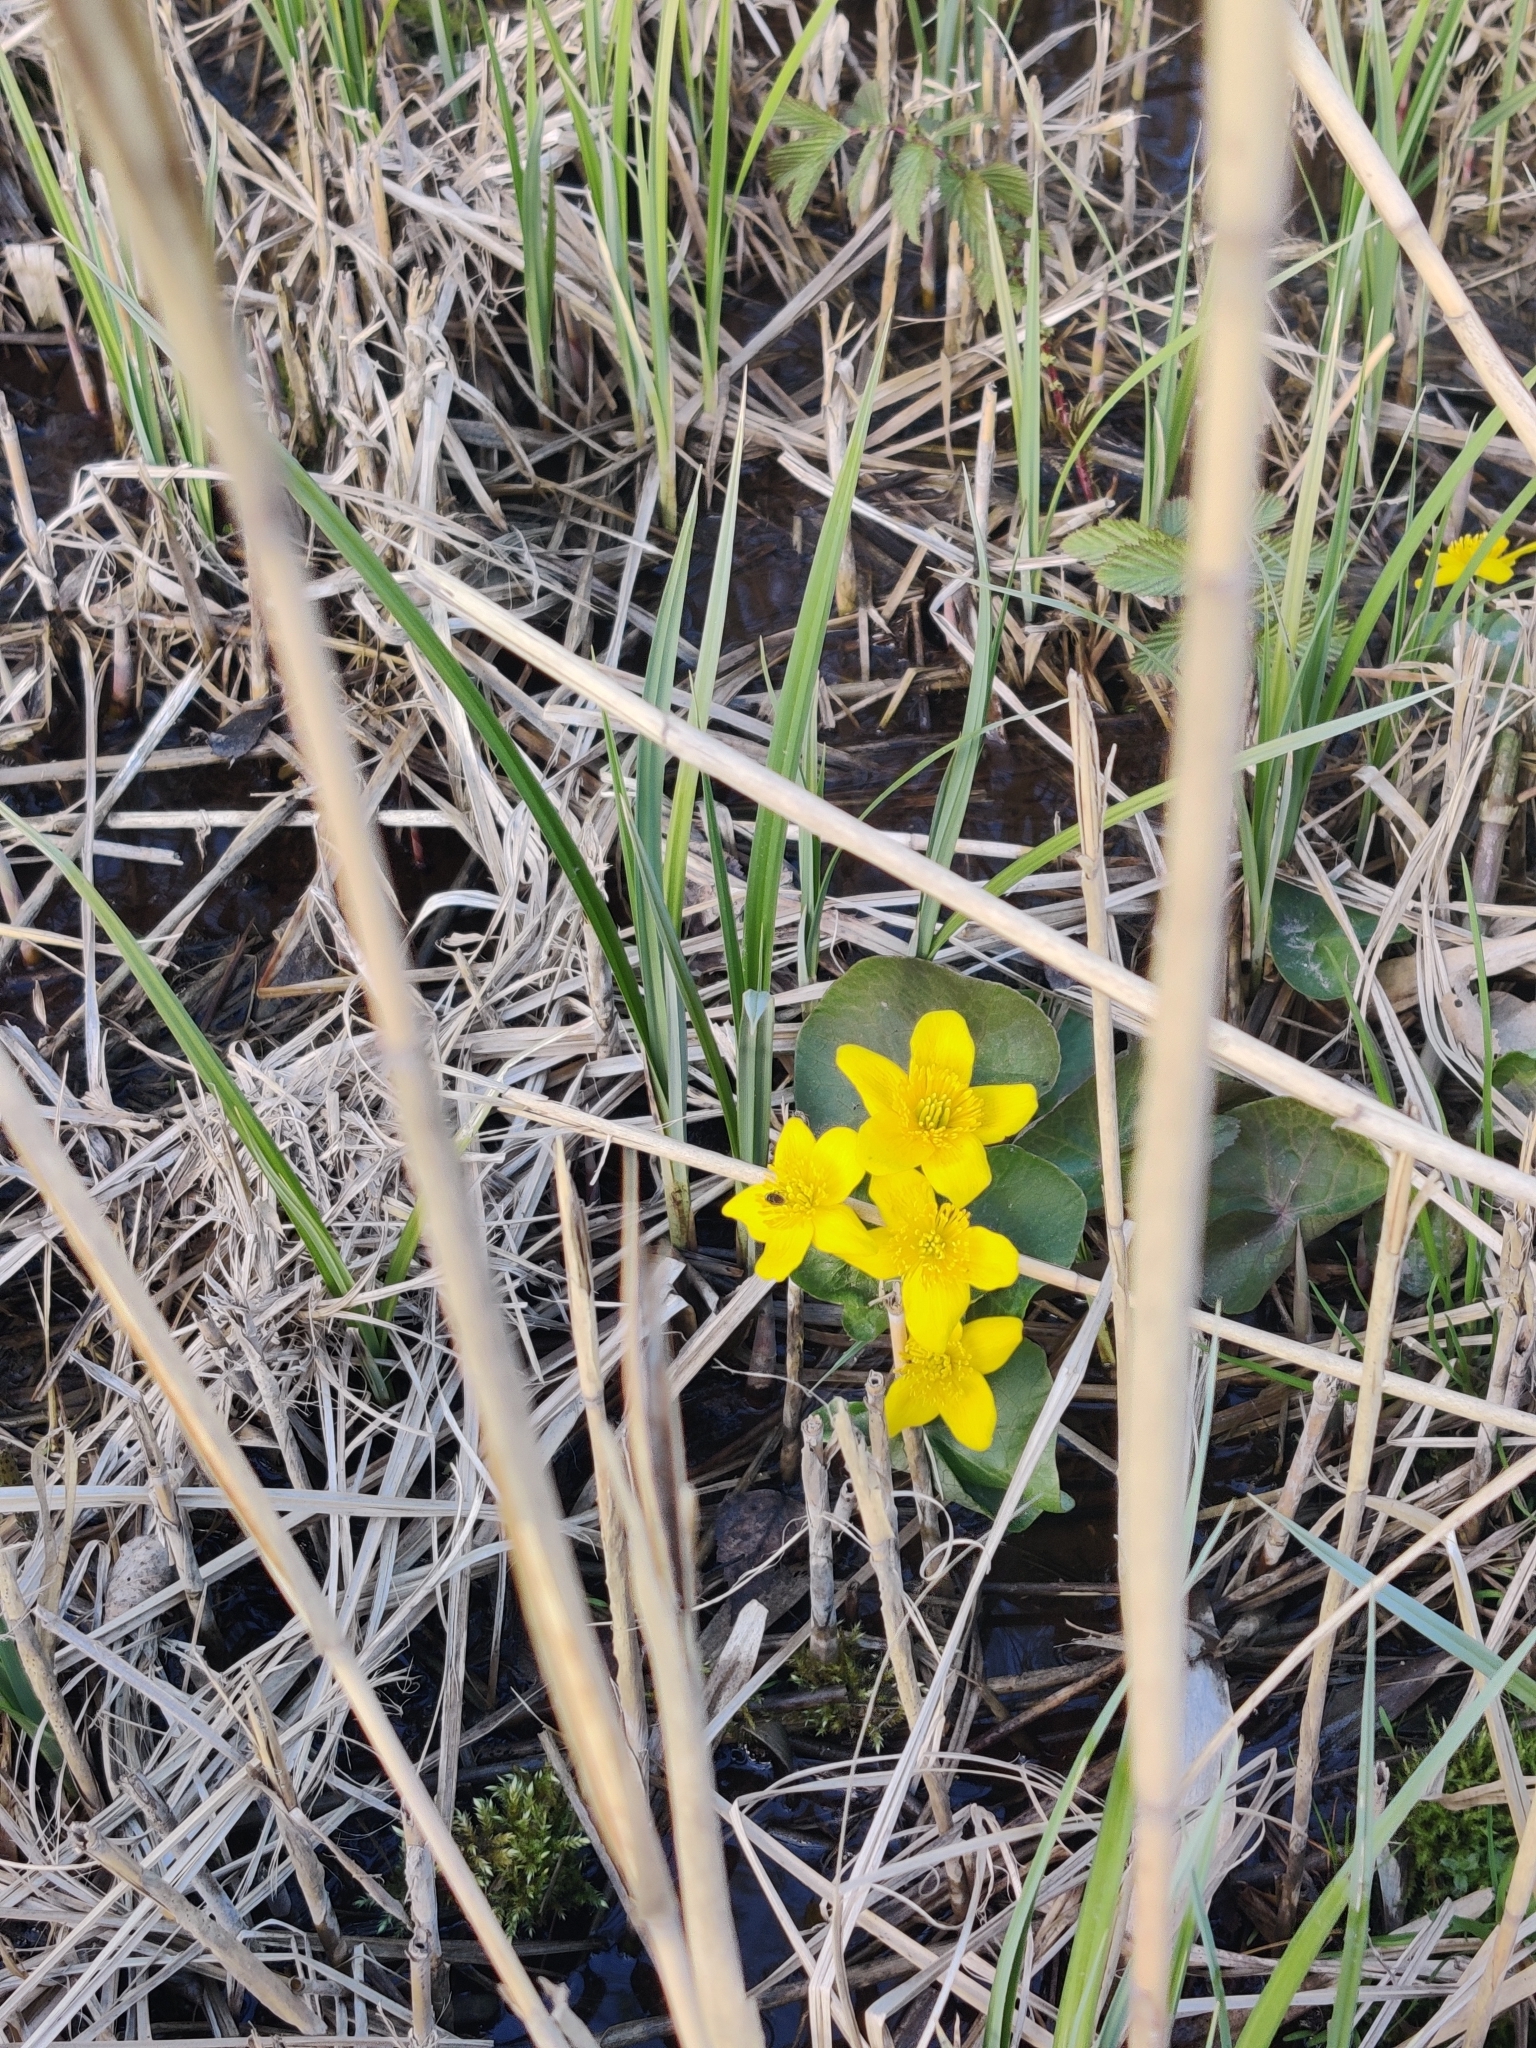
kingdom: Plantae
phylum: Tracheophyta
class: Magnoliopsida
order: Ranunculales
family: Ranunculaceae
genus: Caltha
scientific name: Caltha palustris
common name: Marsh marigold
